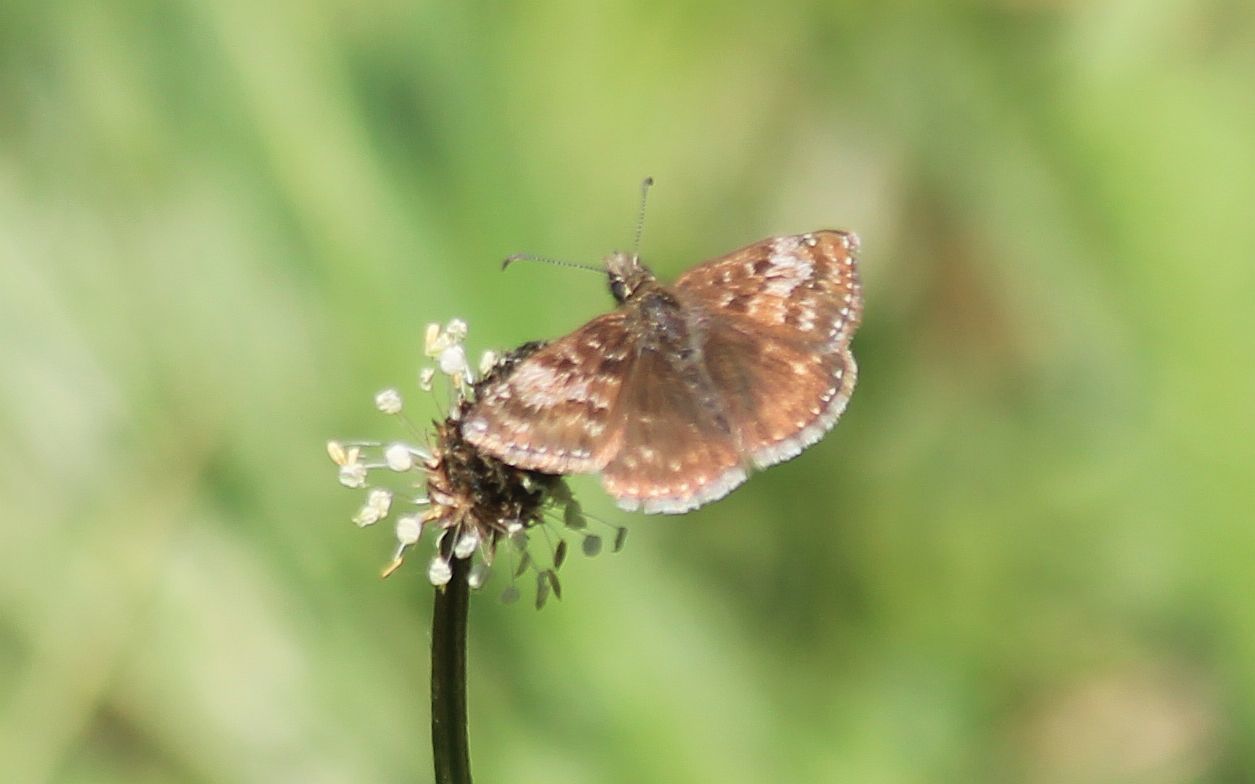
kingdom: Animalia
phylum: Arthropoda
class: Insecta
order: Lepidoptera
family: Hesperiidae
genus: Erynnis
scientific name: Erynnis tages
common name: Dingy skipper
